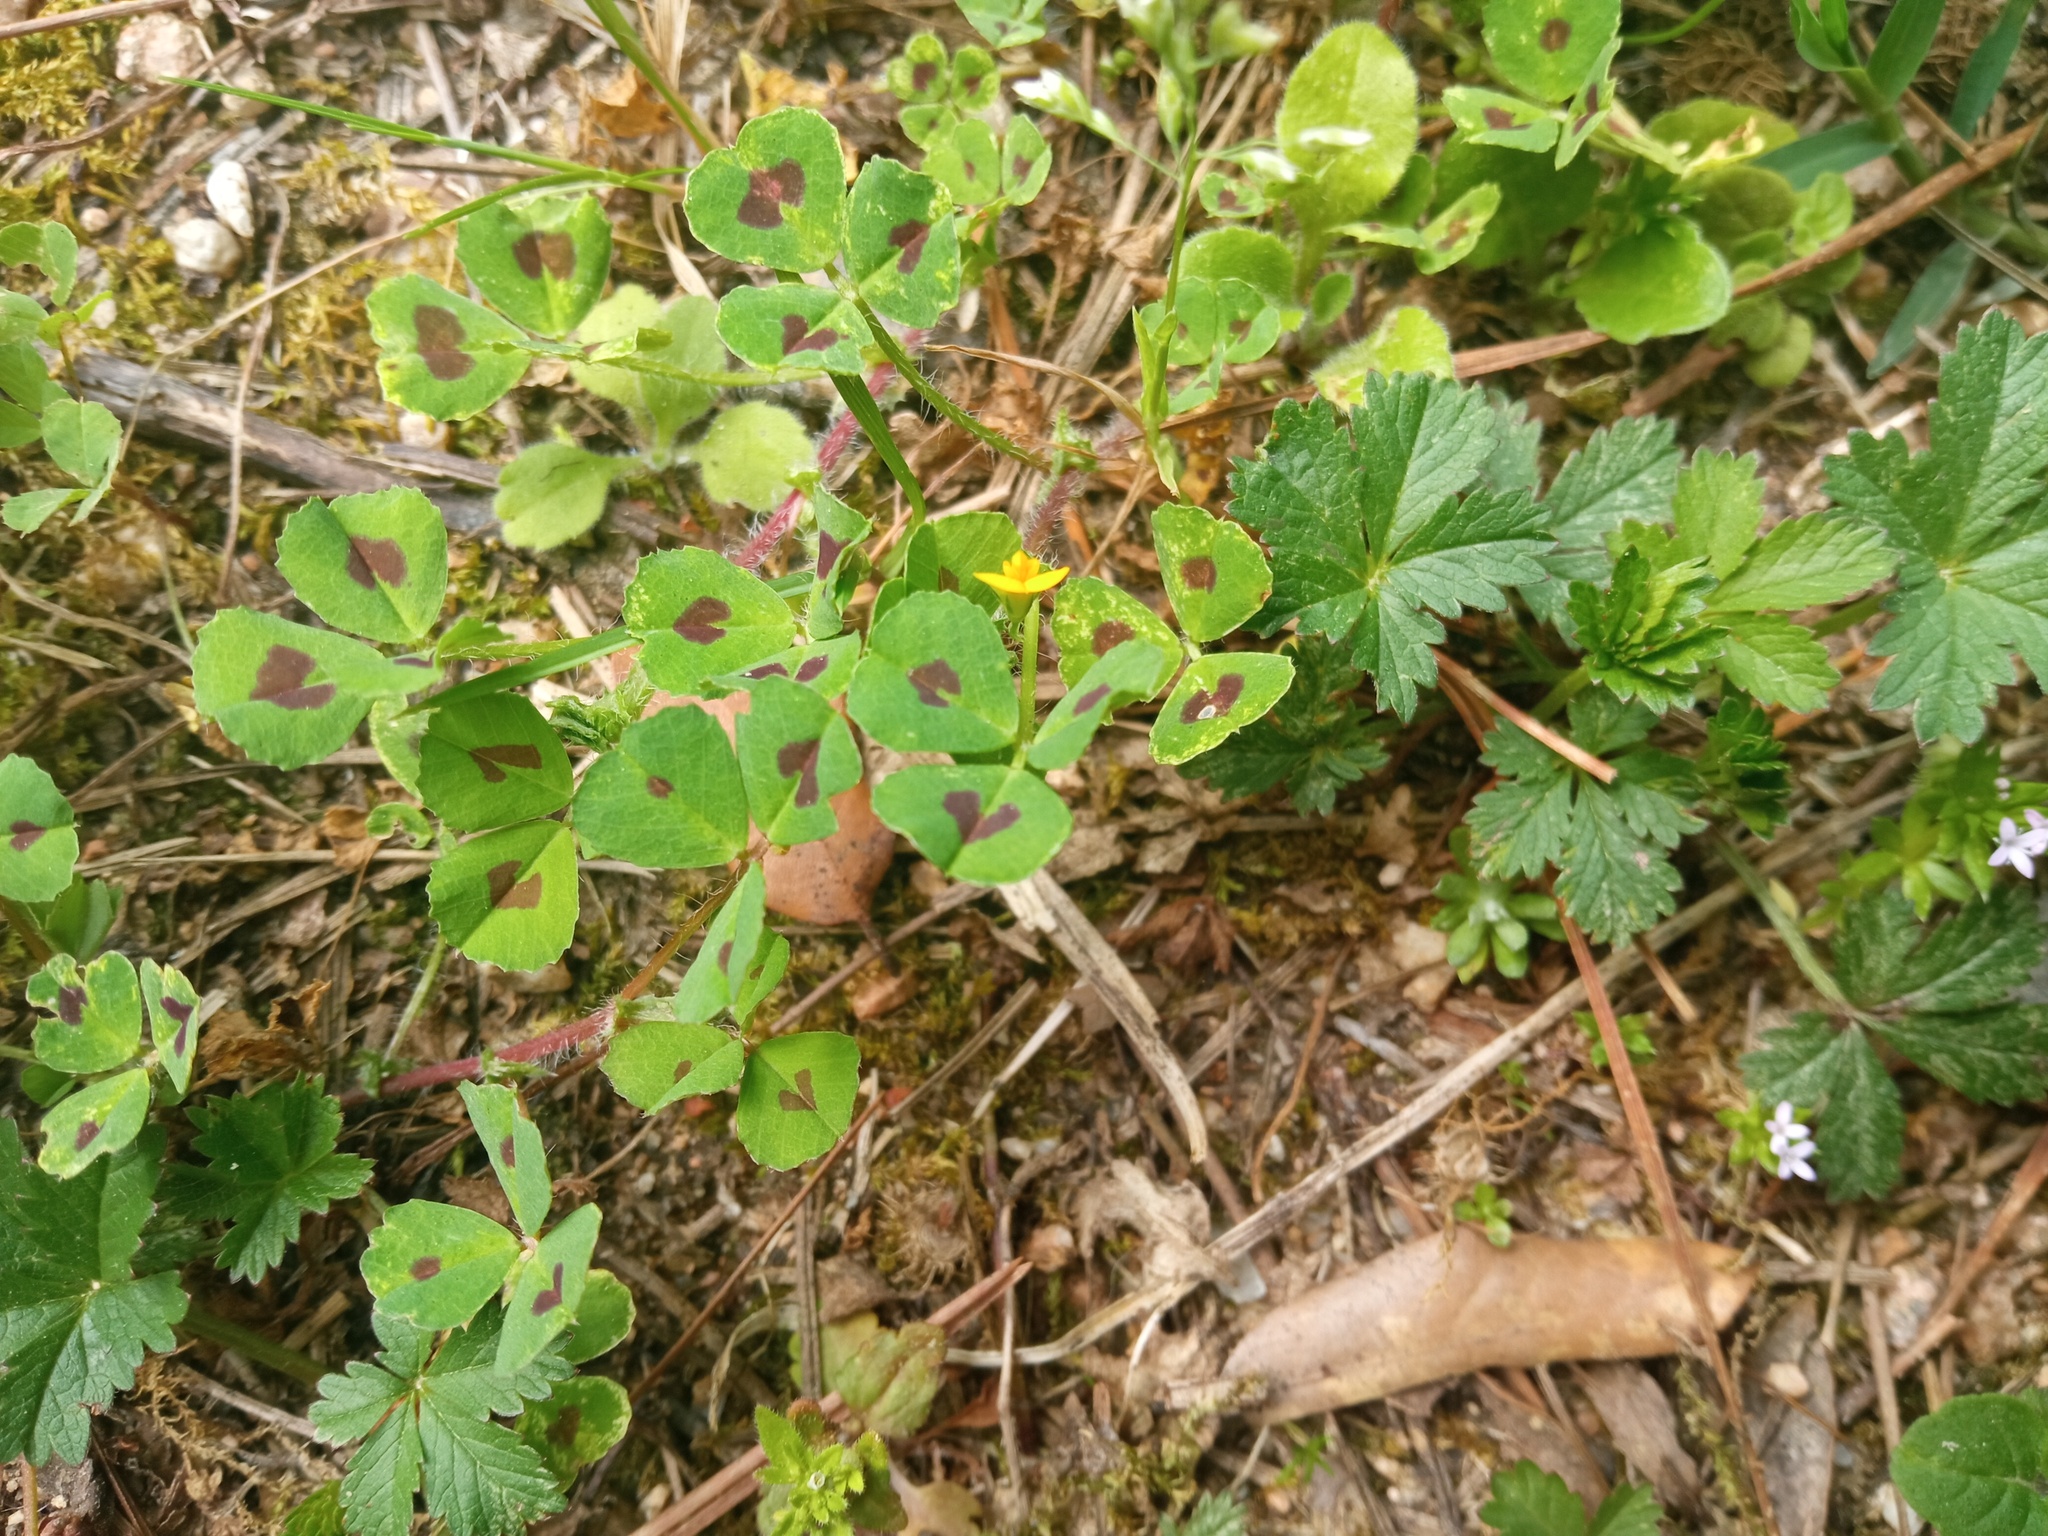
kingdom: Plantae
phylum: Tracheophyta
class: Magnoliopsida
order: Fabales
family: Fabaceae
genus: Medicago
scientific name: Medicago arabica
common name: Spotted medick
